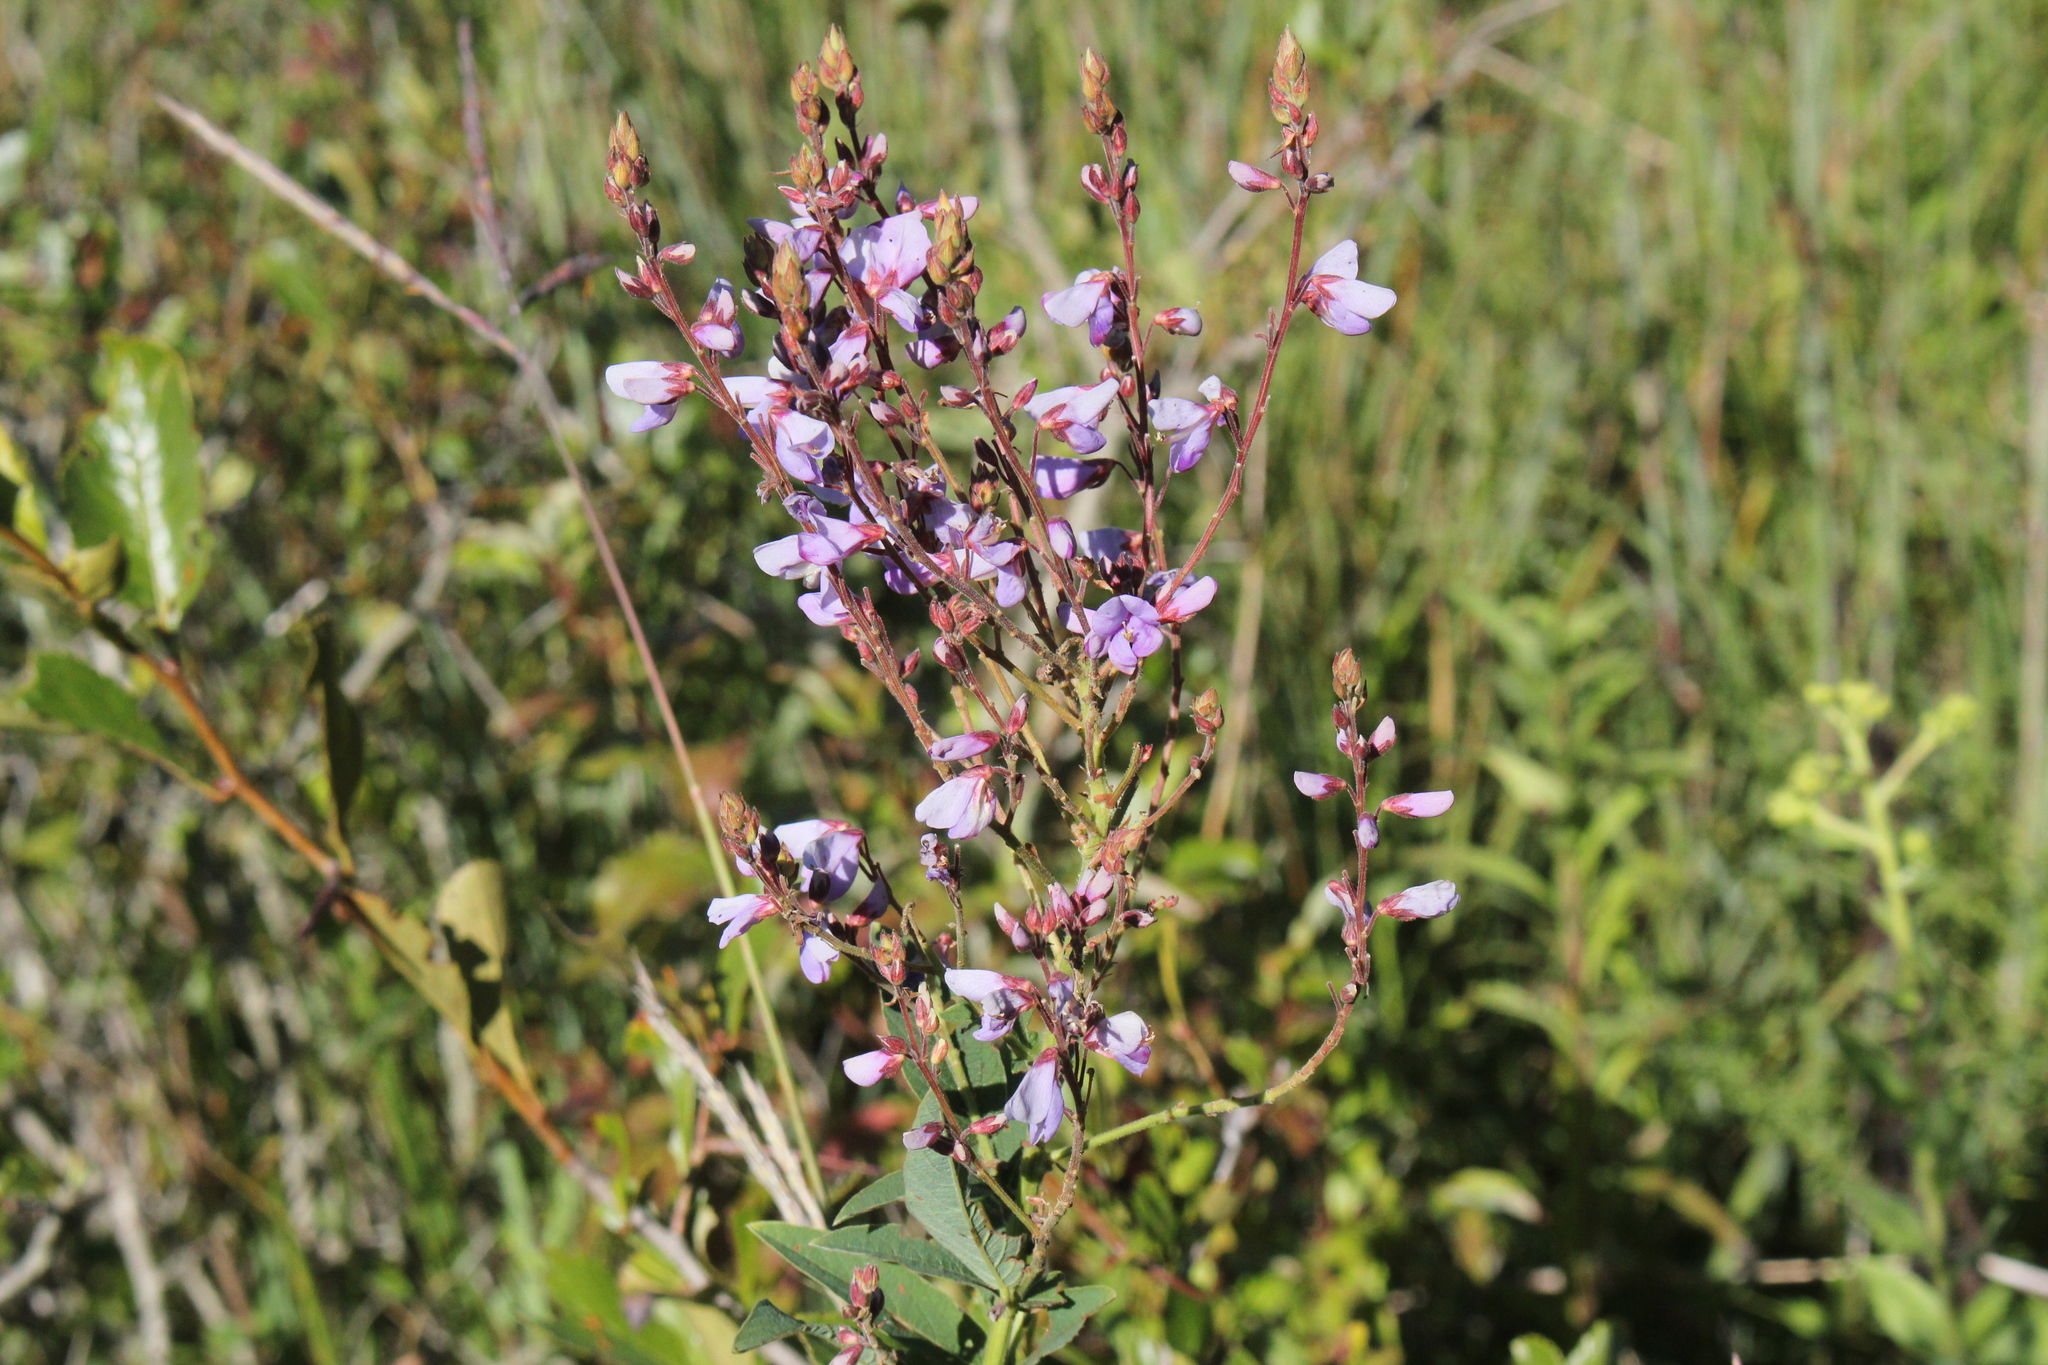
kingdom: Plantae
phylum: Tracheophyta
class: Magnoliopsida
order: Fabales
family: Fabaceae
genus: Desmodium
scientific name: Desmodium canadense
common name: Canada tick-trefoil
